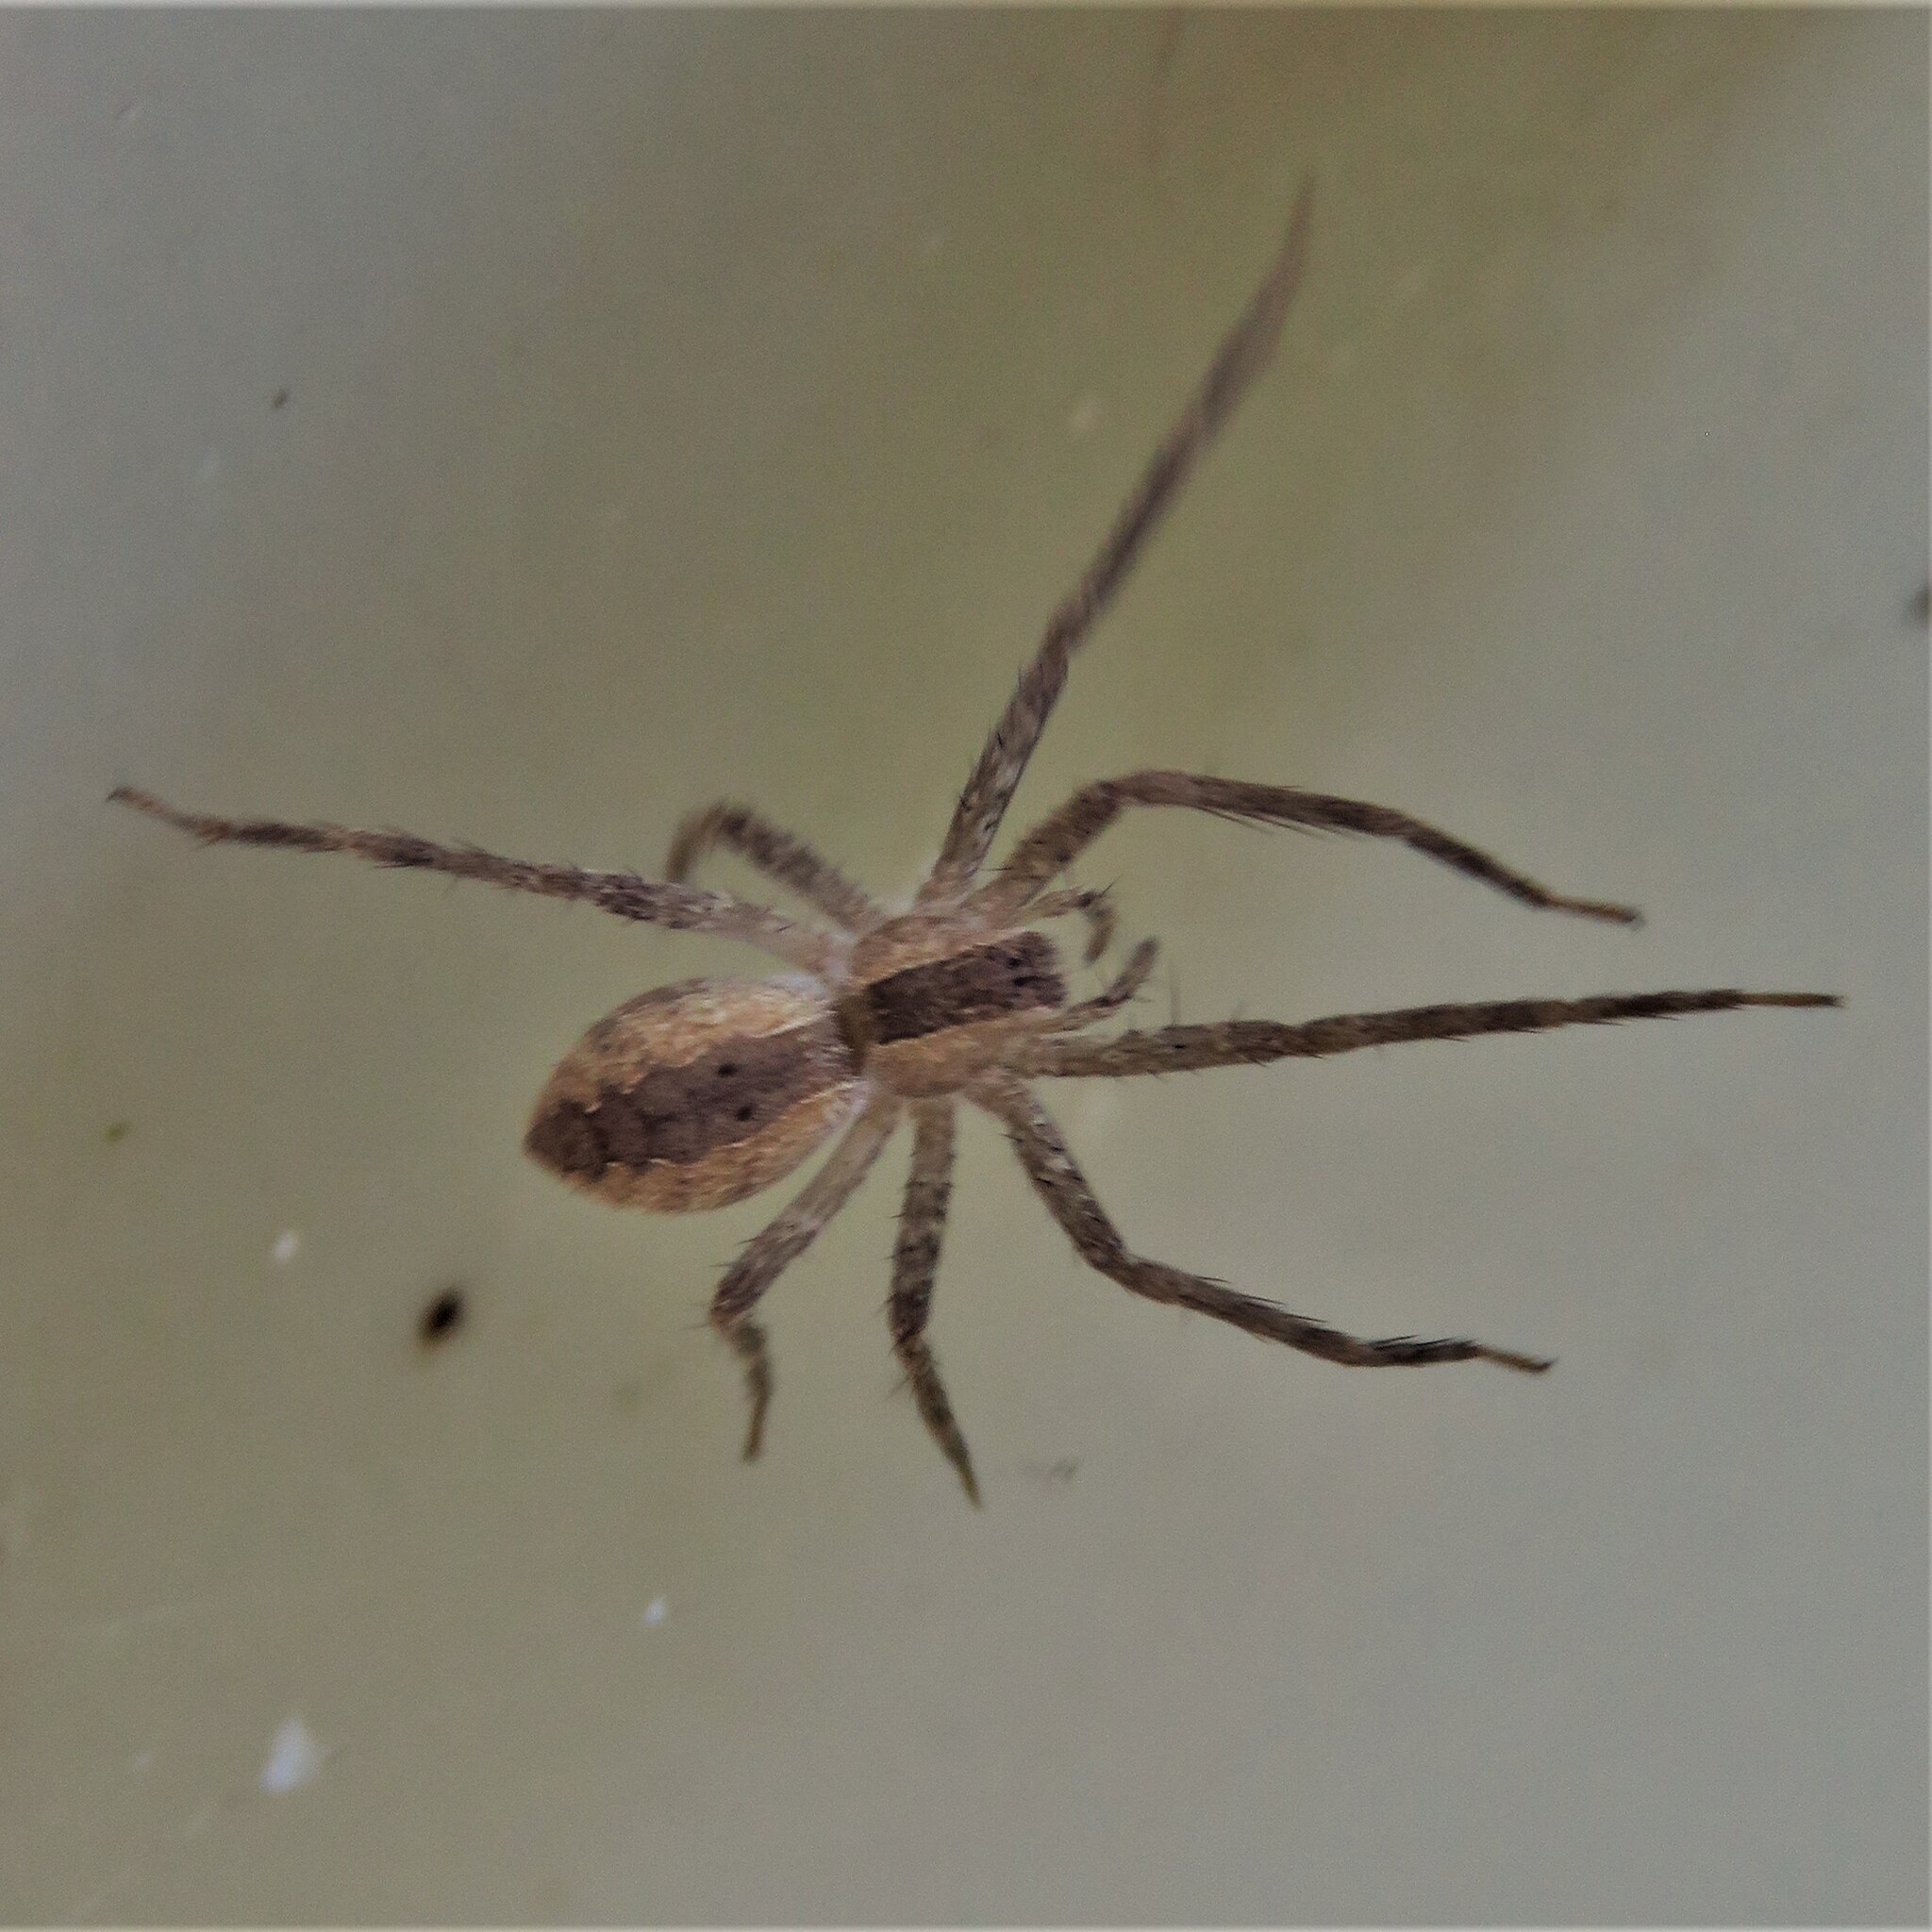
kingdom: Animalia
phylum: Arthropoda
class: Arachnida
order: Araneae
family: Pisauridae
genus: Pisaurina
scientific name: Pisaurina mira
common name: American nursery web spider
